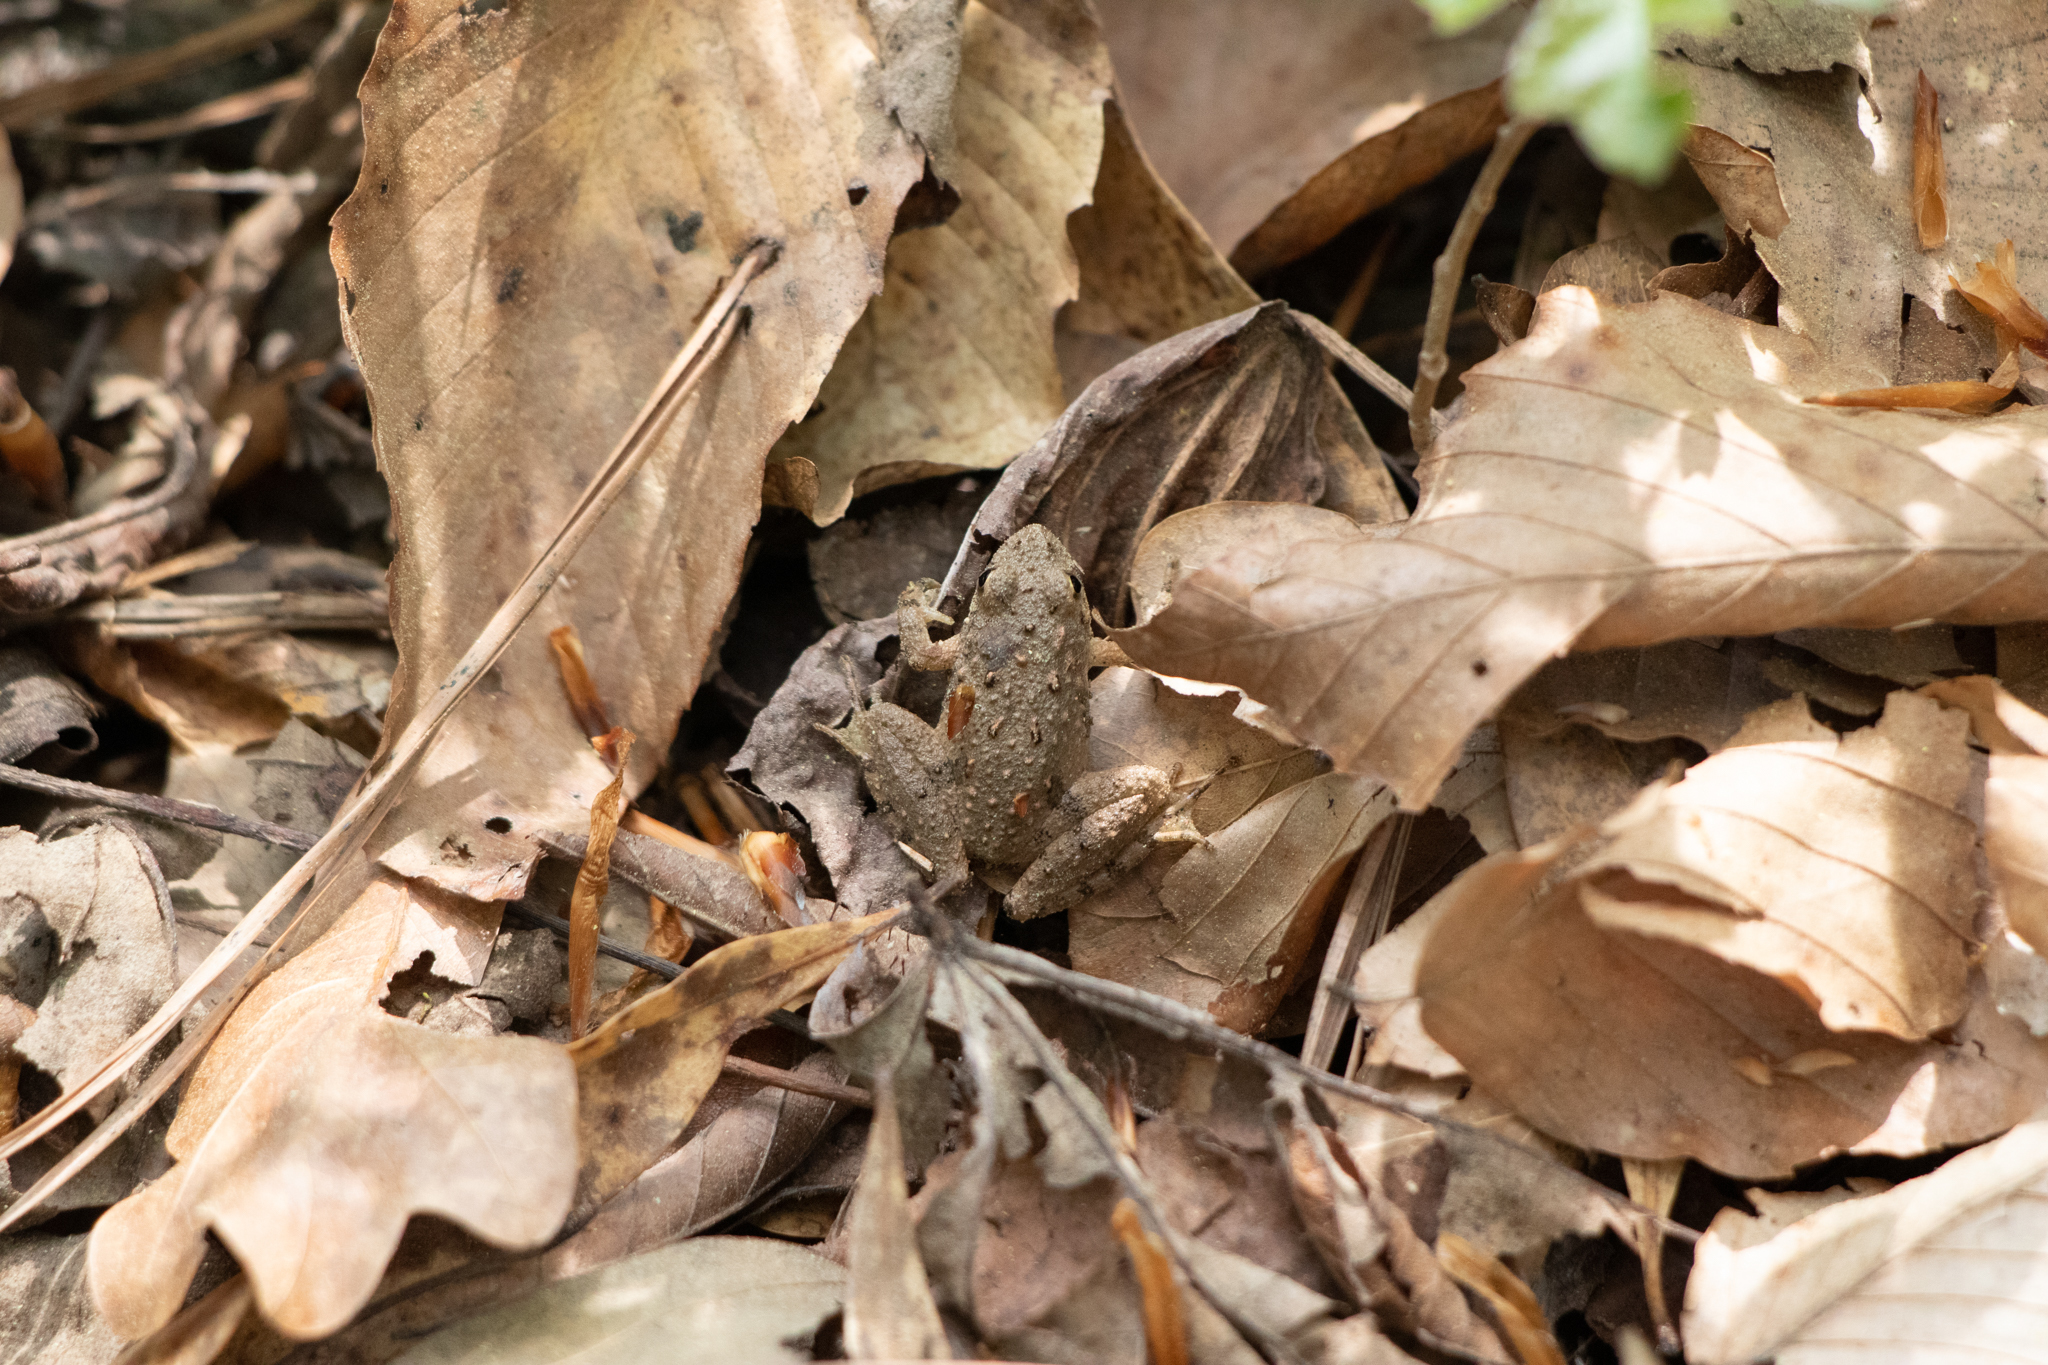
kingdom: Animalia
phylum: Chordata
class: Amphibia
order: Anura
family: Hylidae
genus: Acris
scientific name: Acris crepitans
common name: Northern cricket frog
